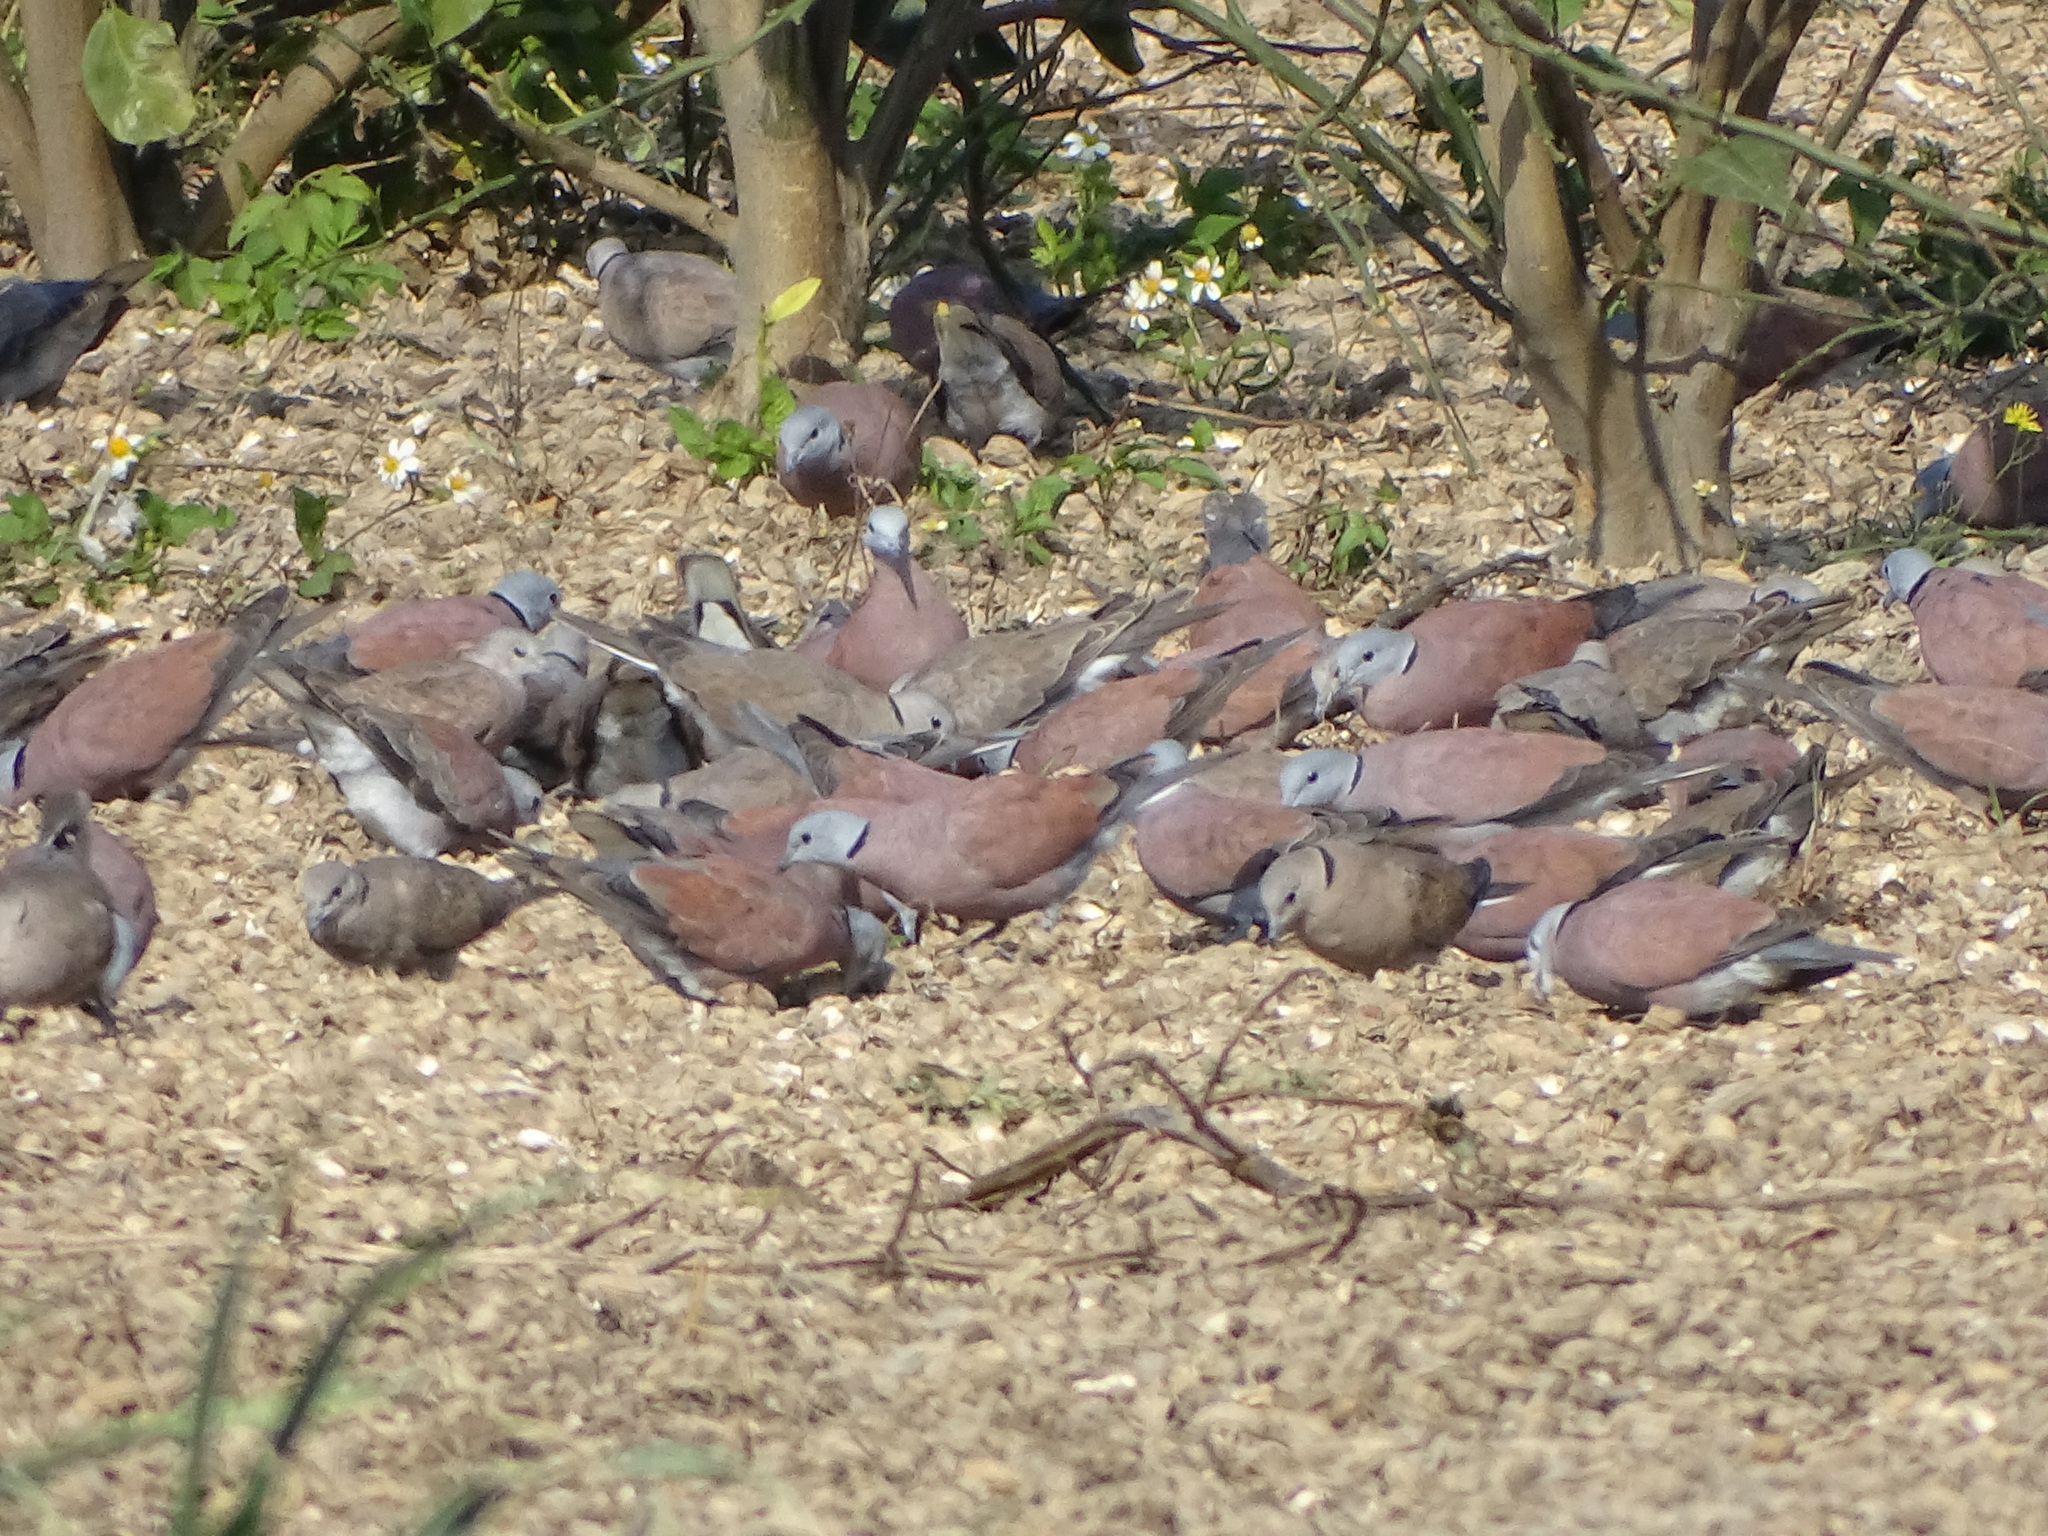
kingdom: Animalia
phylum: Chordata
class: Aves
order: Columbiformes
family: Columbidae
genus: Streptopelia
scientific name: Streptopelia tranquebarica
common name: Red turtle dove
